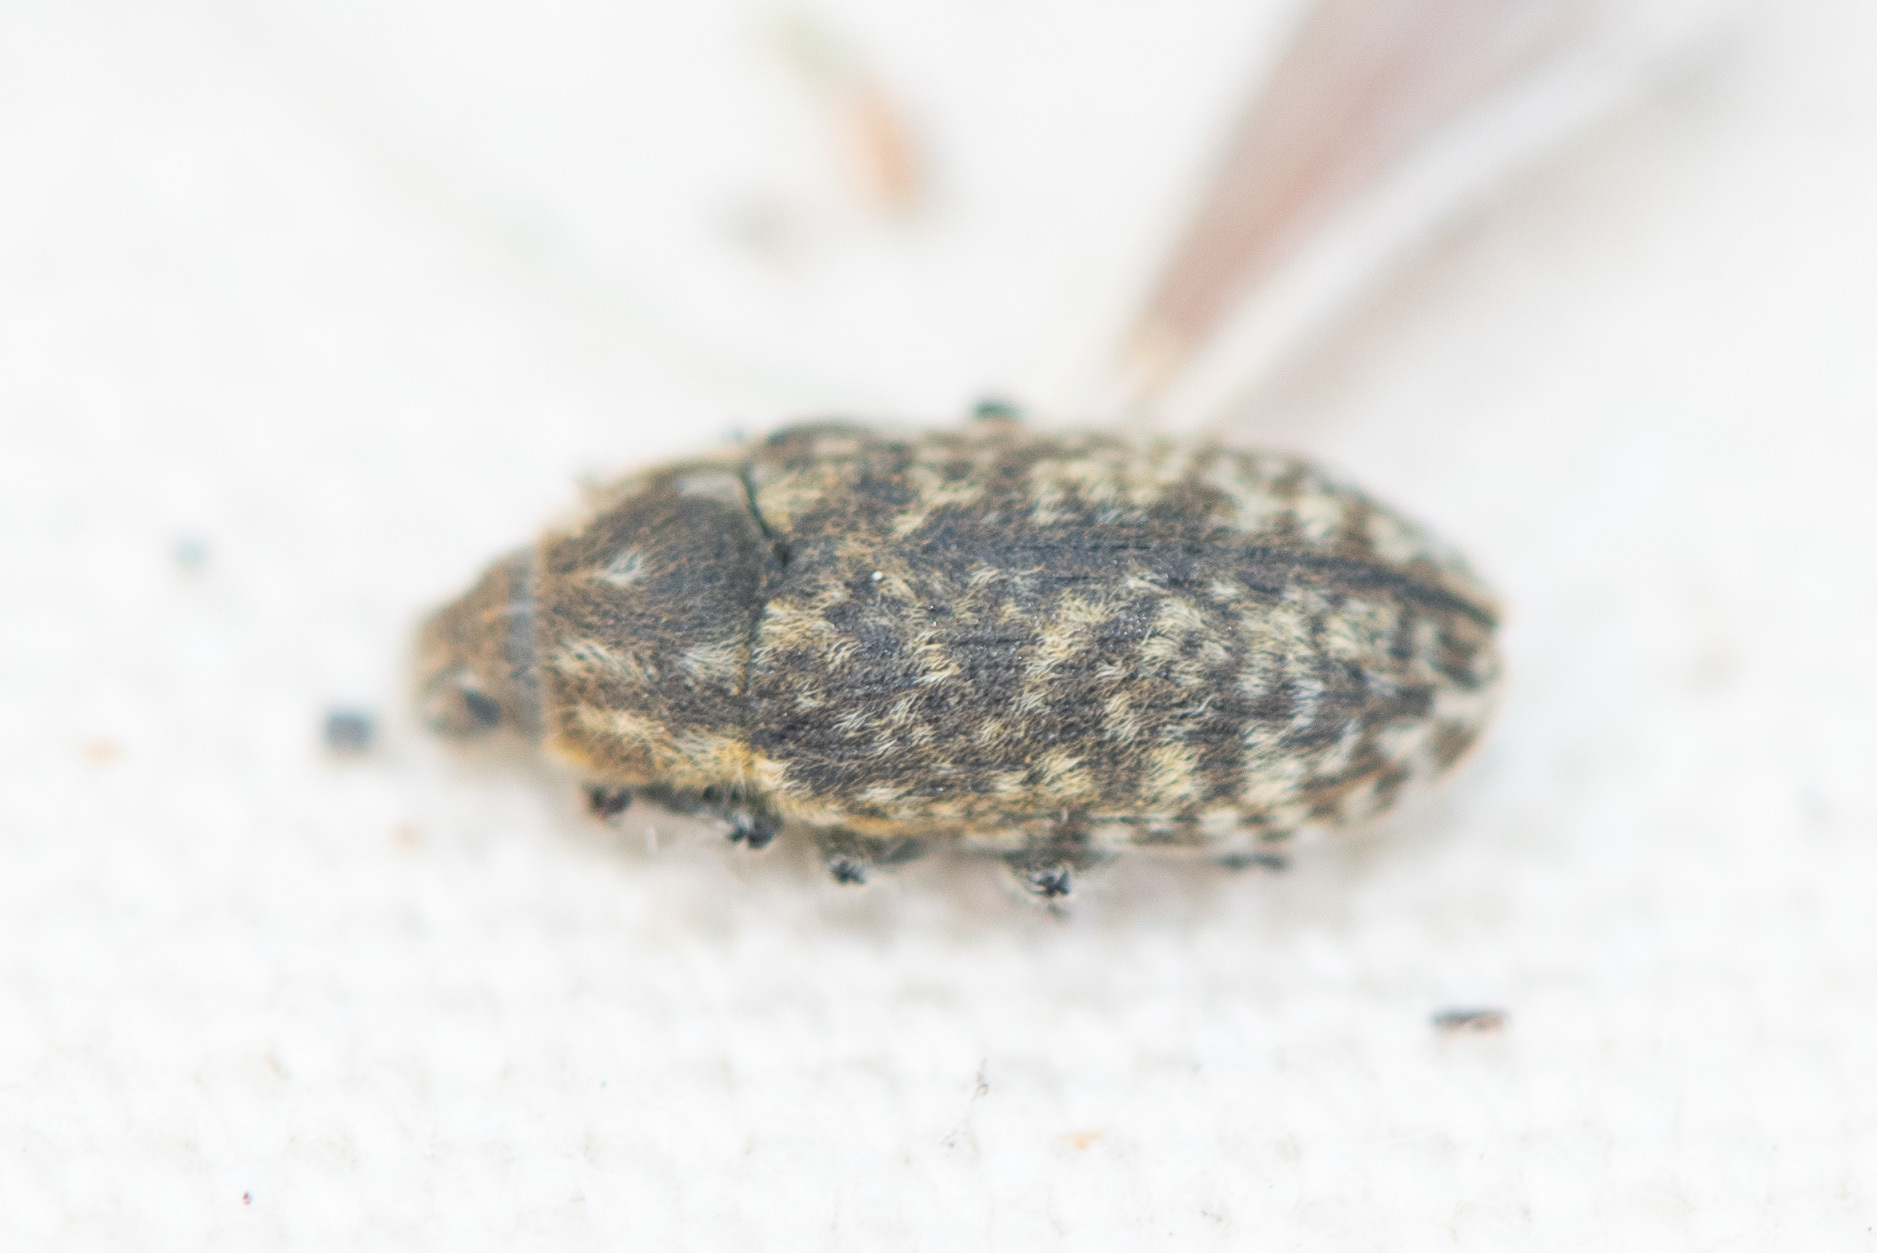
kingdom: Animalia
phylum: Arthropoda
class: Insecta
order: Coleoptera
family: Curculionidae
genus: Rhinocyllus
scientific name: Rhinocyllus conicus
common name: Weevil
